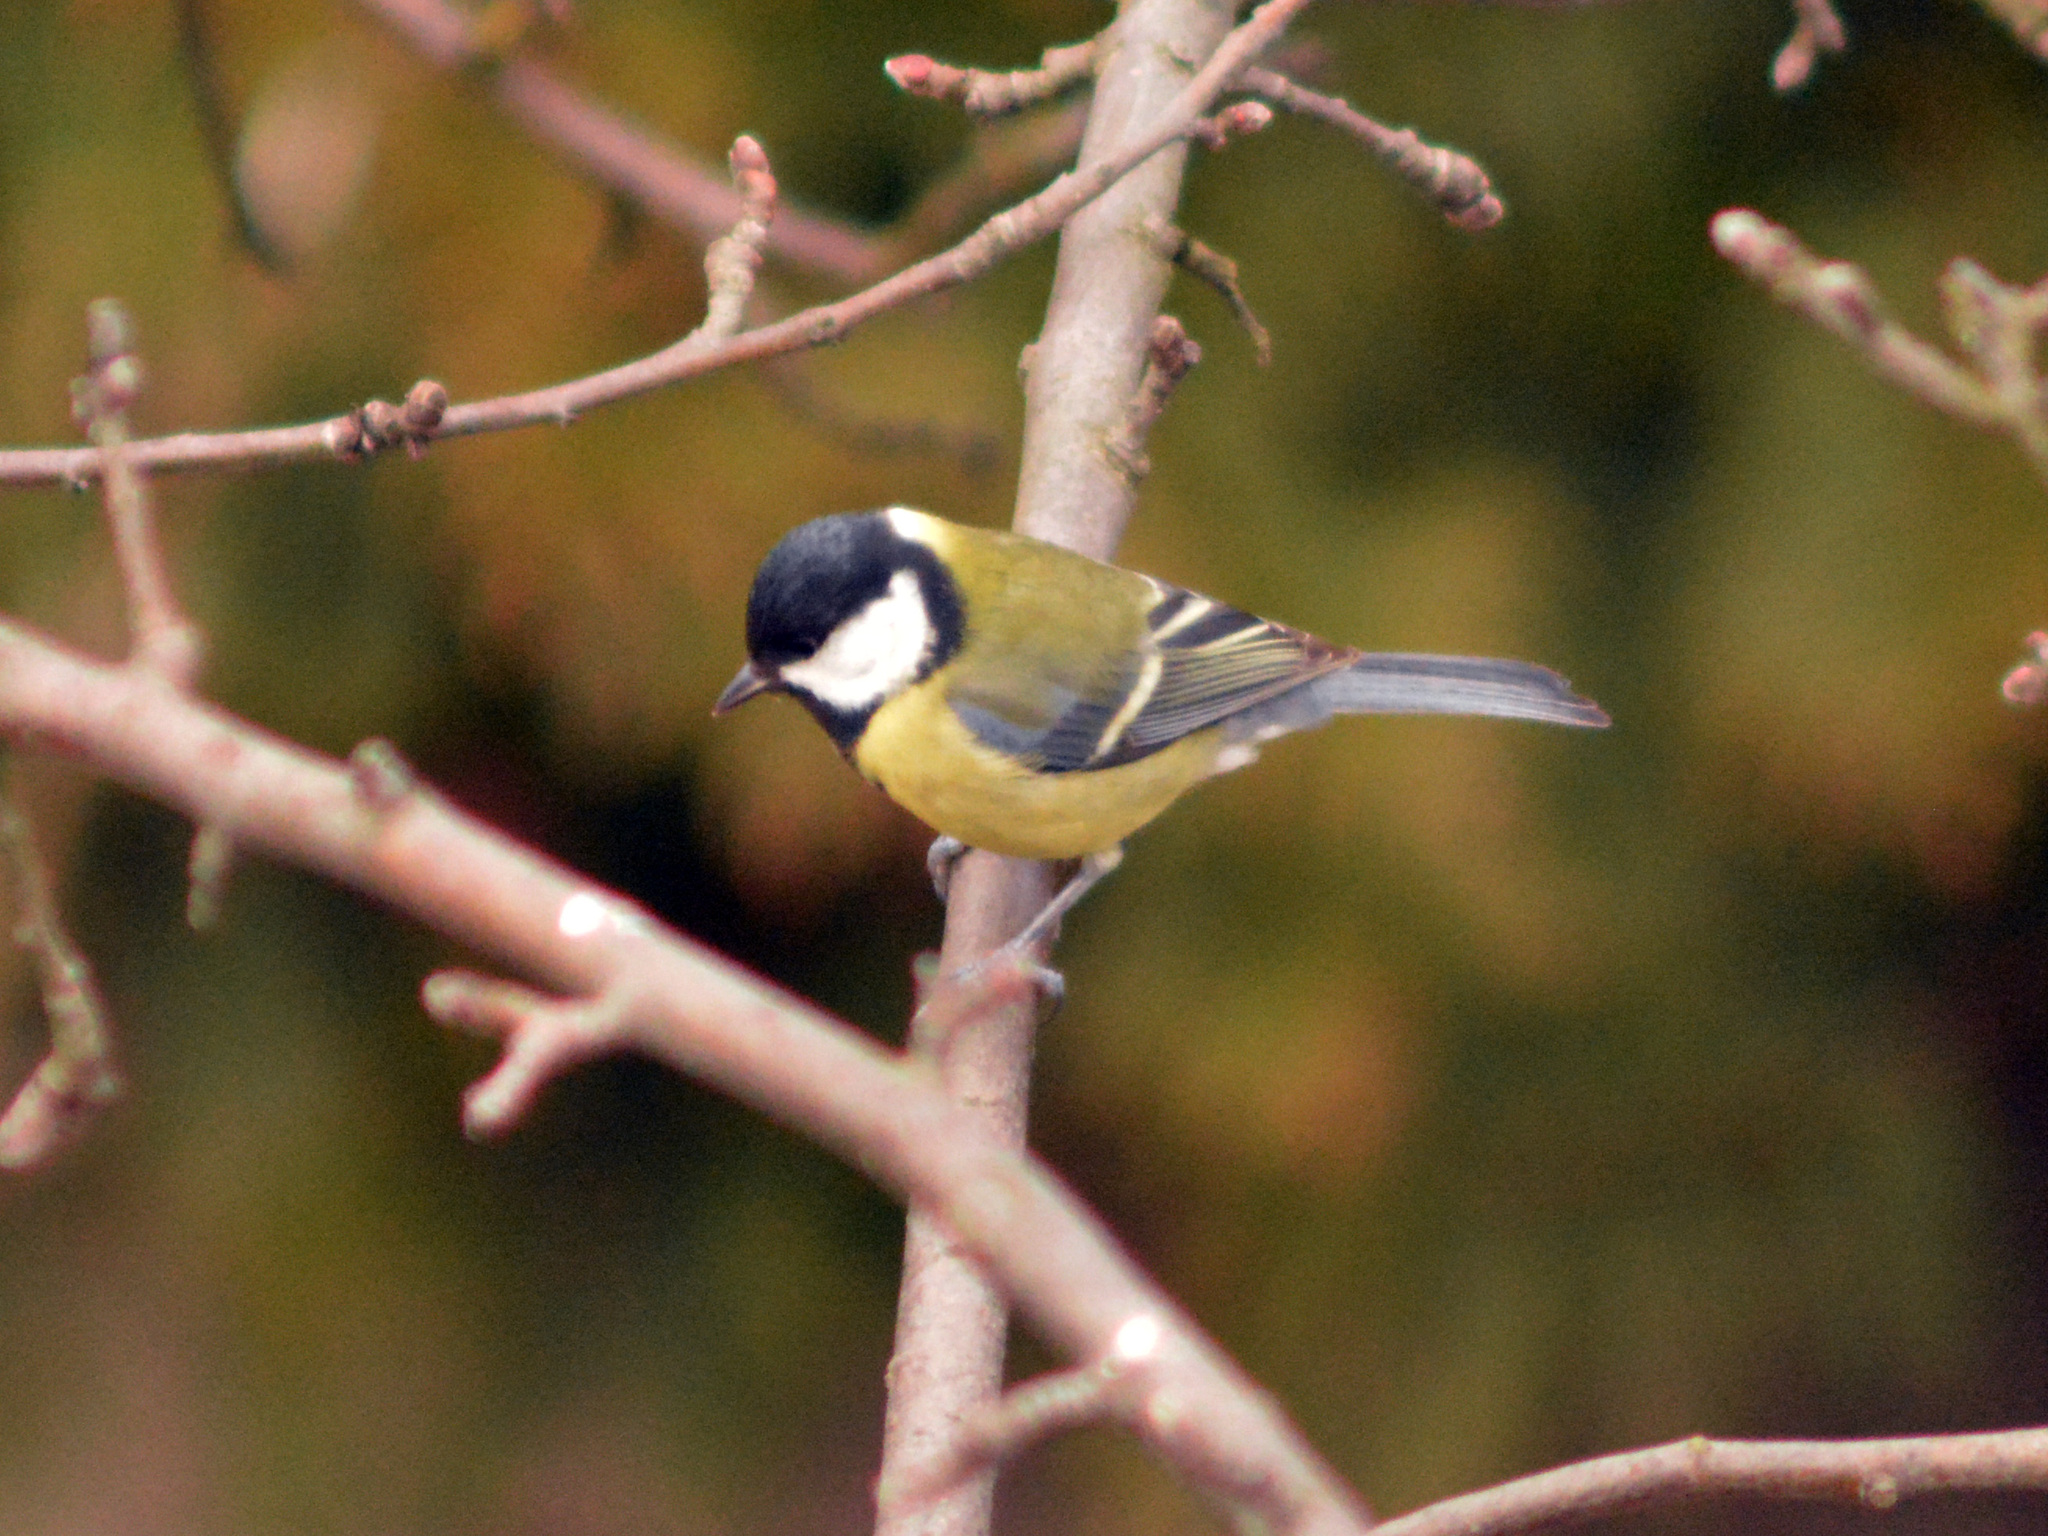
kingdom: Animalia
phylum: Chordata
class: Aves
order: Passeriformes
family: Paridae
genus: Parus
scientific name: Parus major
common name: Great tit
